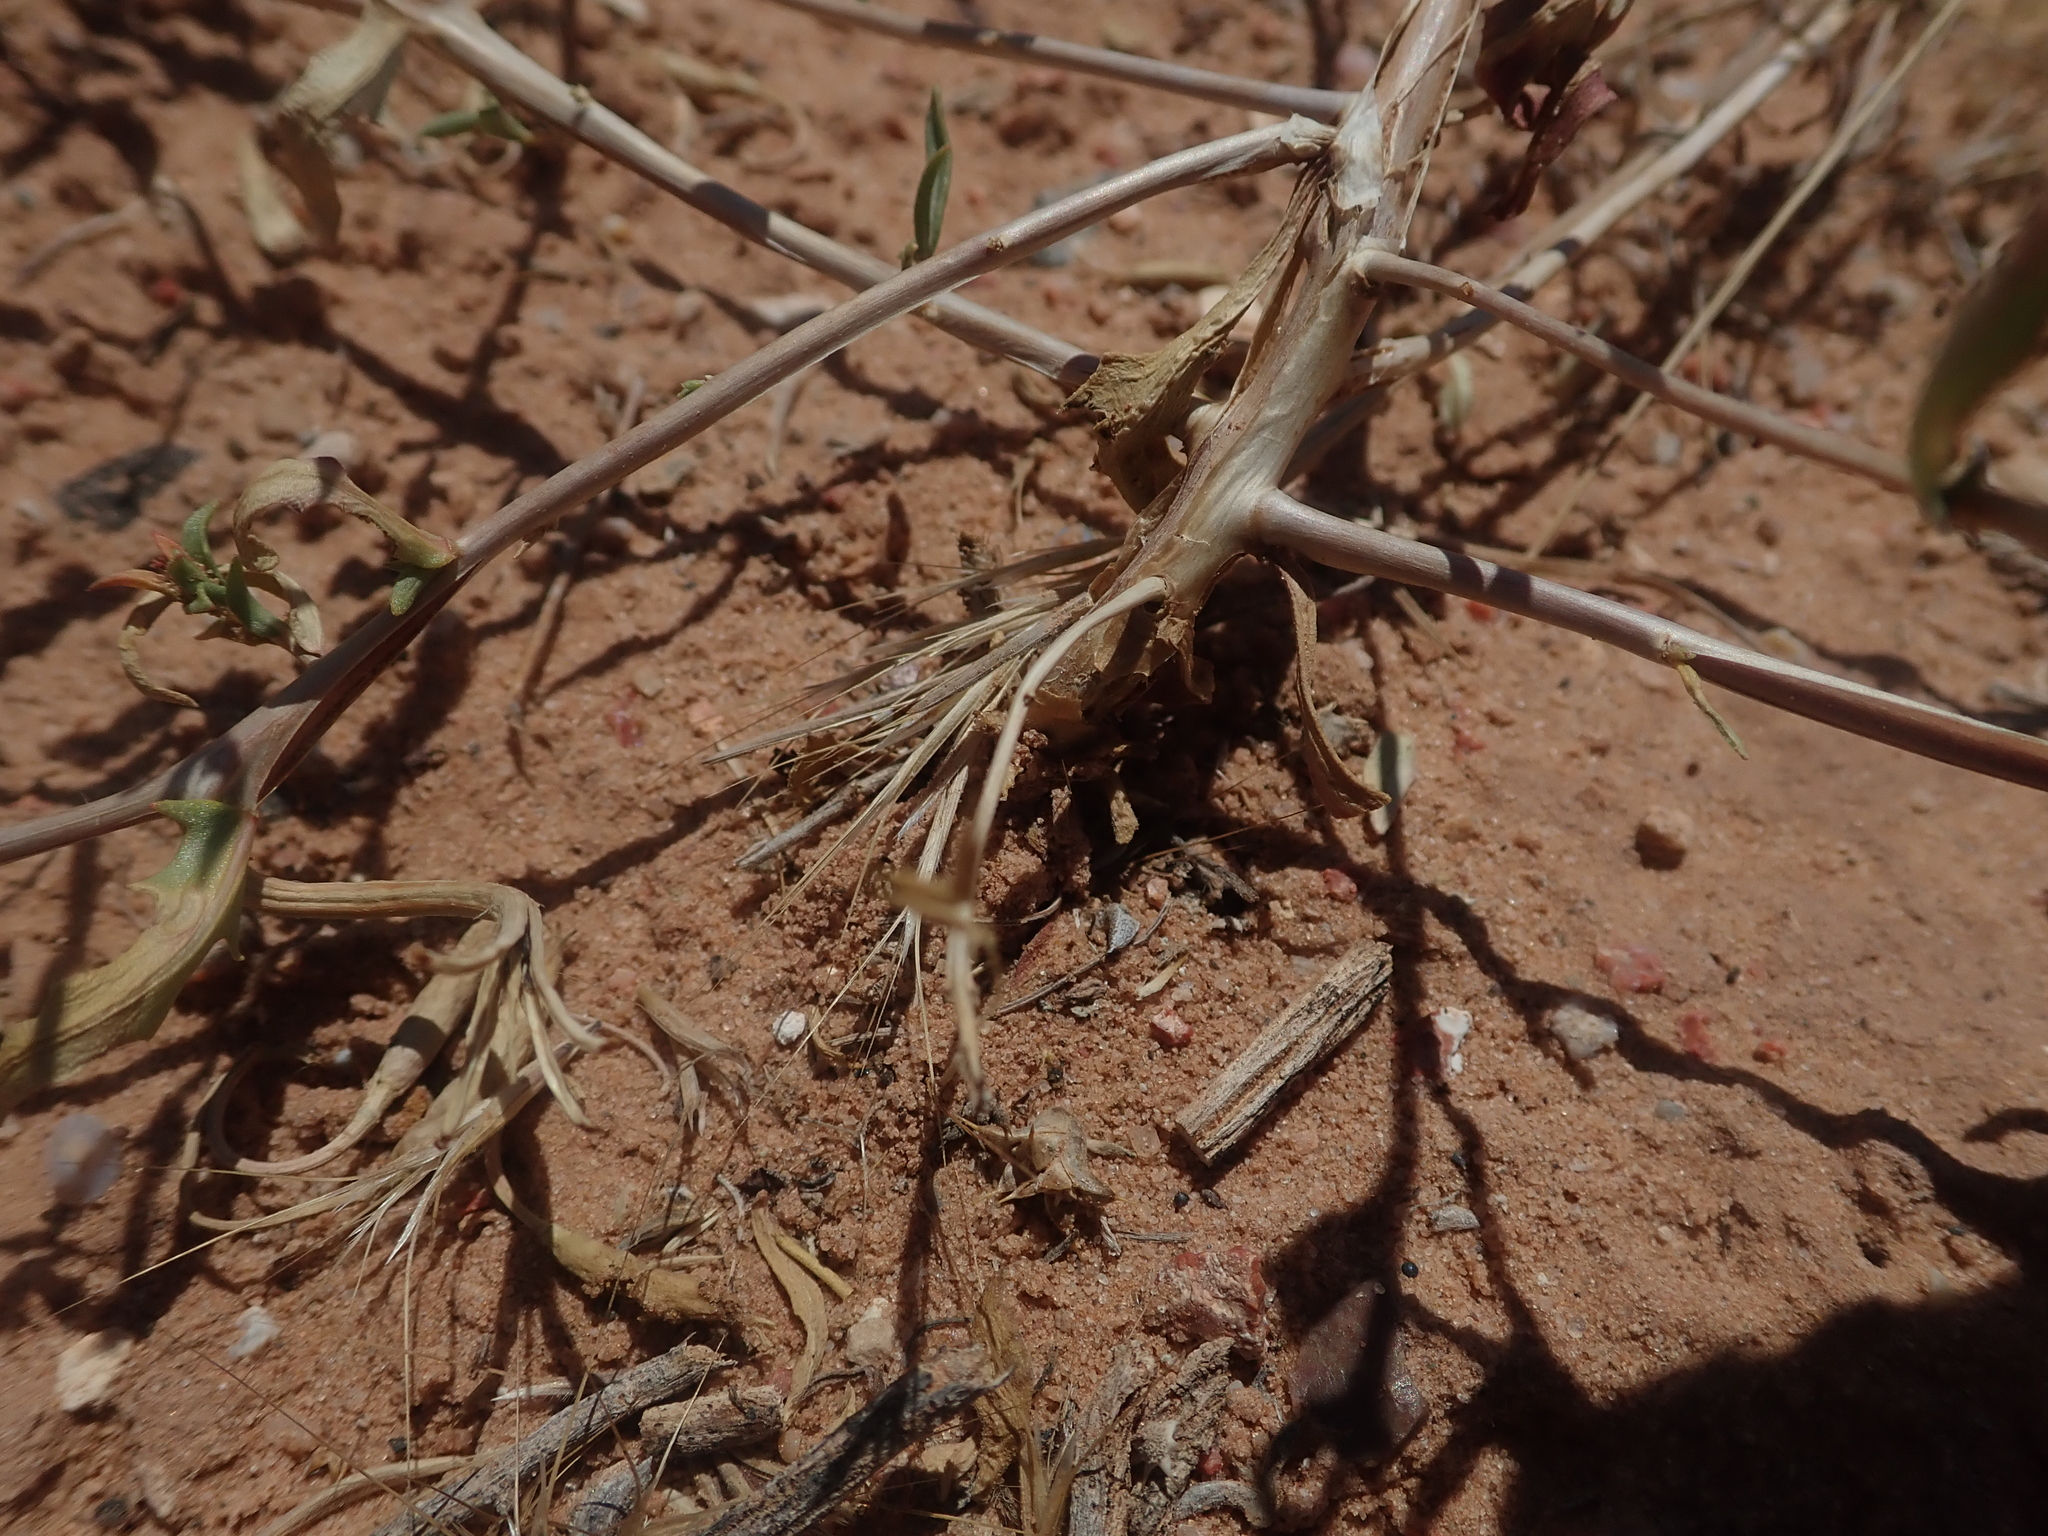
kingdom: Plantae
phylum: Tracheophyta
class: Magnoliopsida
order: Myrtales
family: Onagraceae
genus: Oenothera
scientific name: Oenothera pallida
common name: Pale evening-primrose
